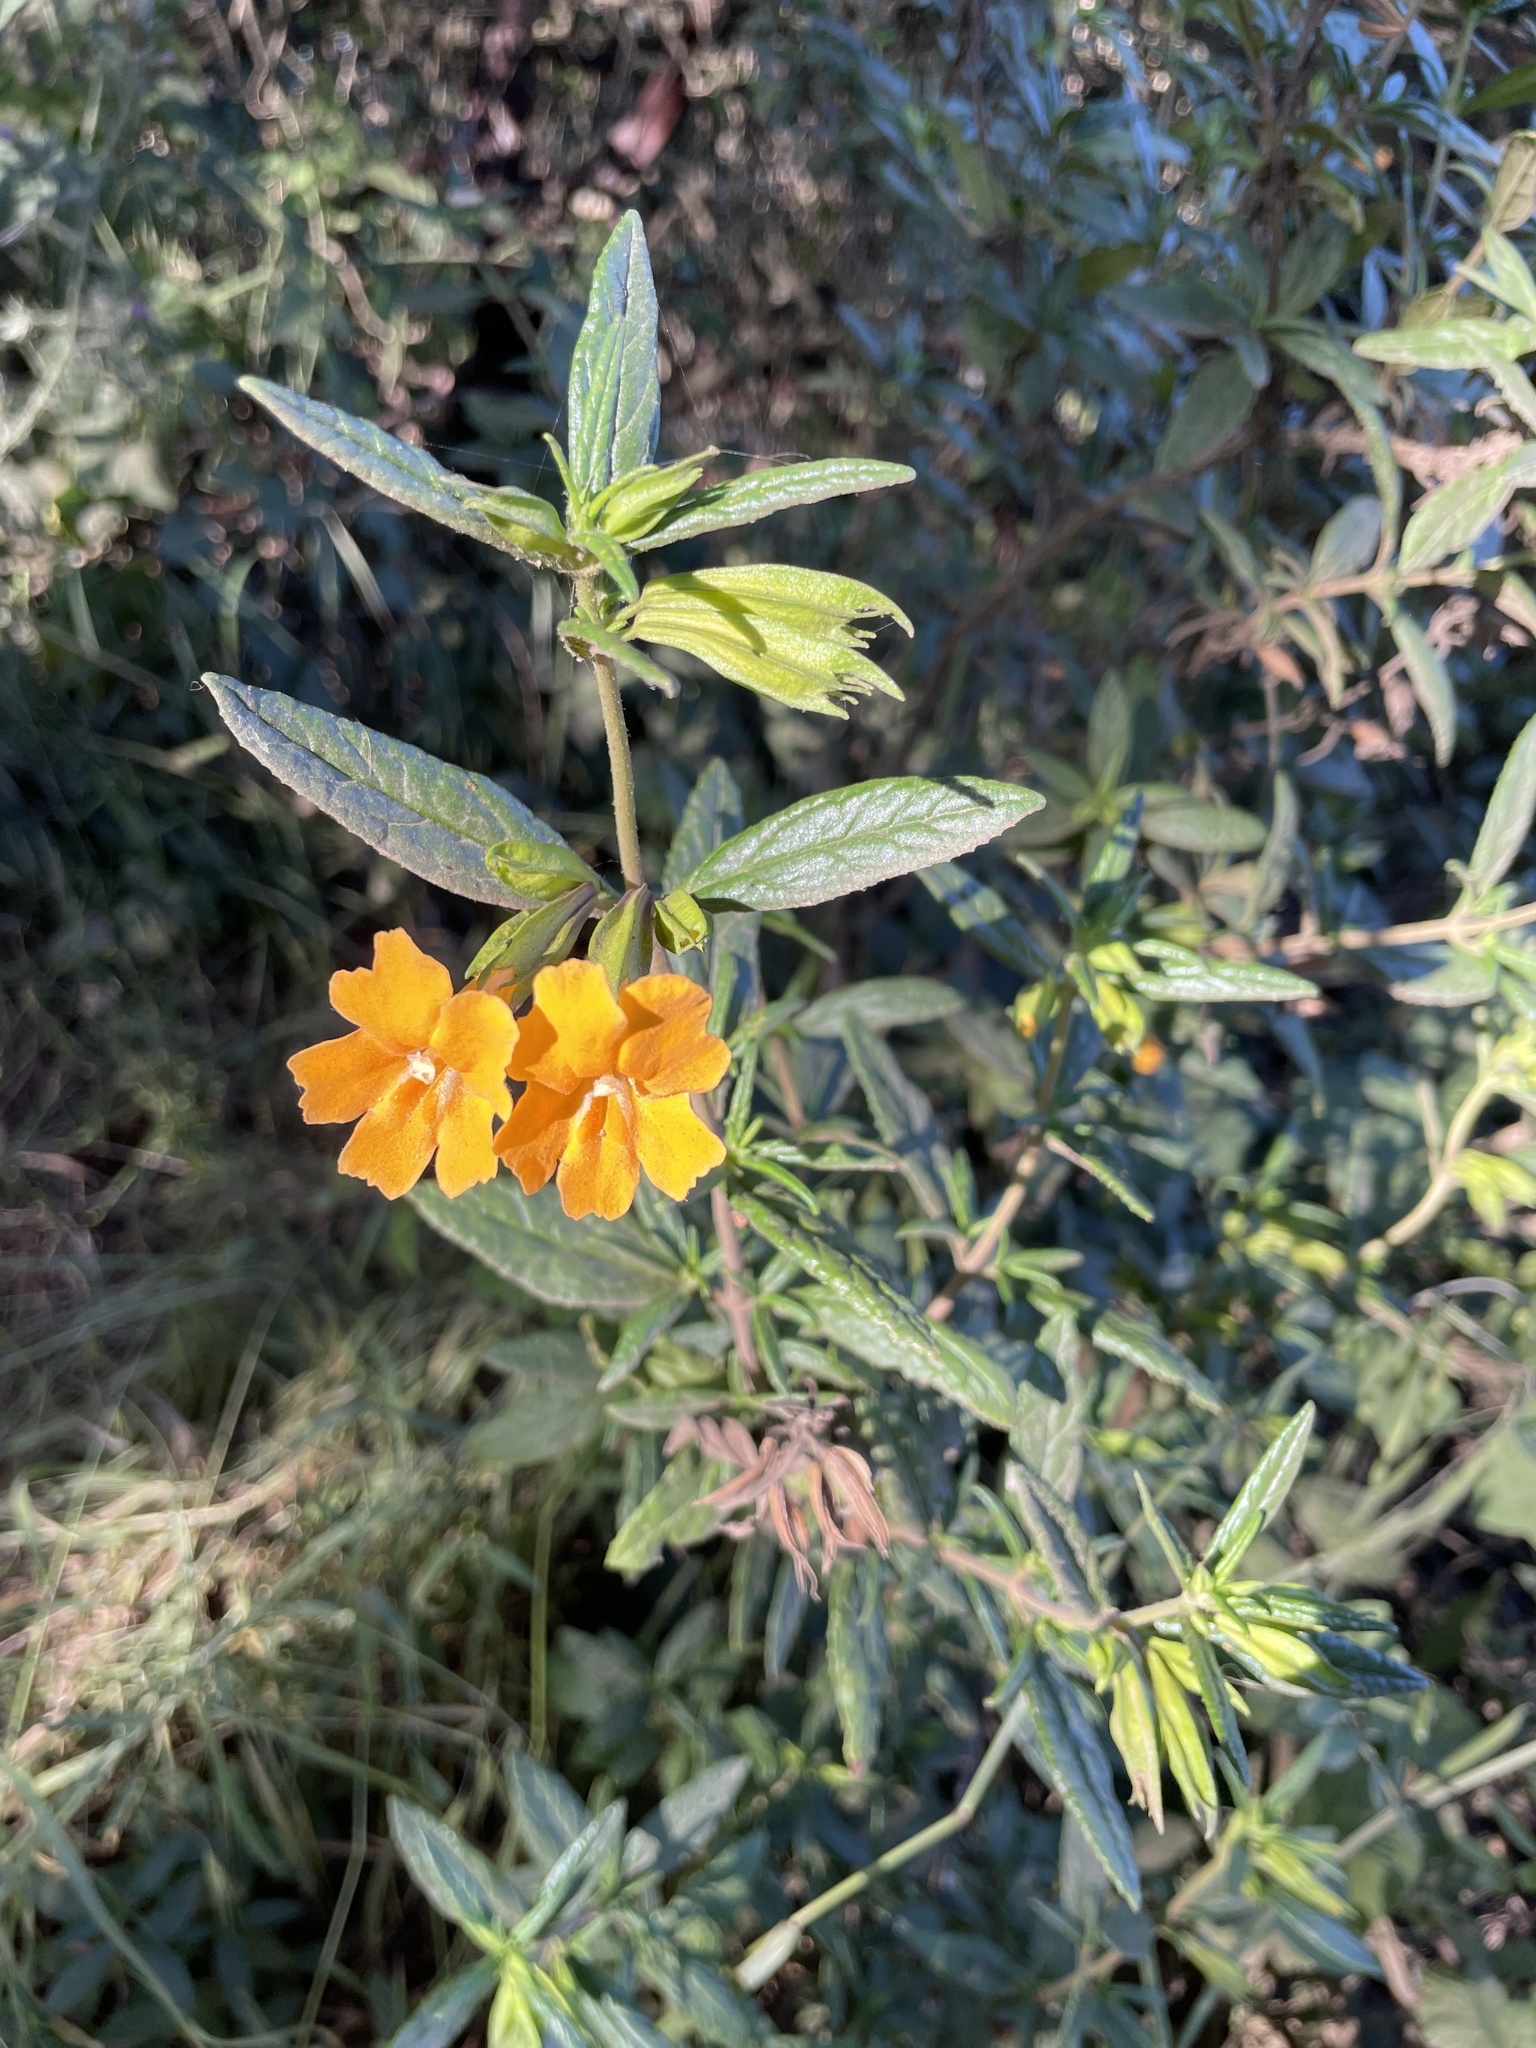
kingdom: Plantae
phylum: Tracheophyta
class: Magnoliopsida
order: Lamiales
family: Phrymaceae
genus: Diplacus
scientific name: Diplacus aurantiacus
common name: Bush monkey-flower
